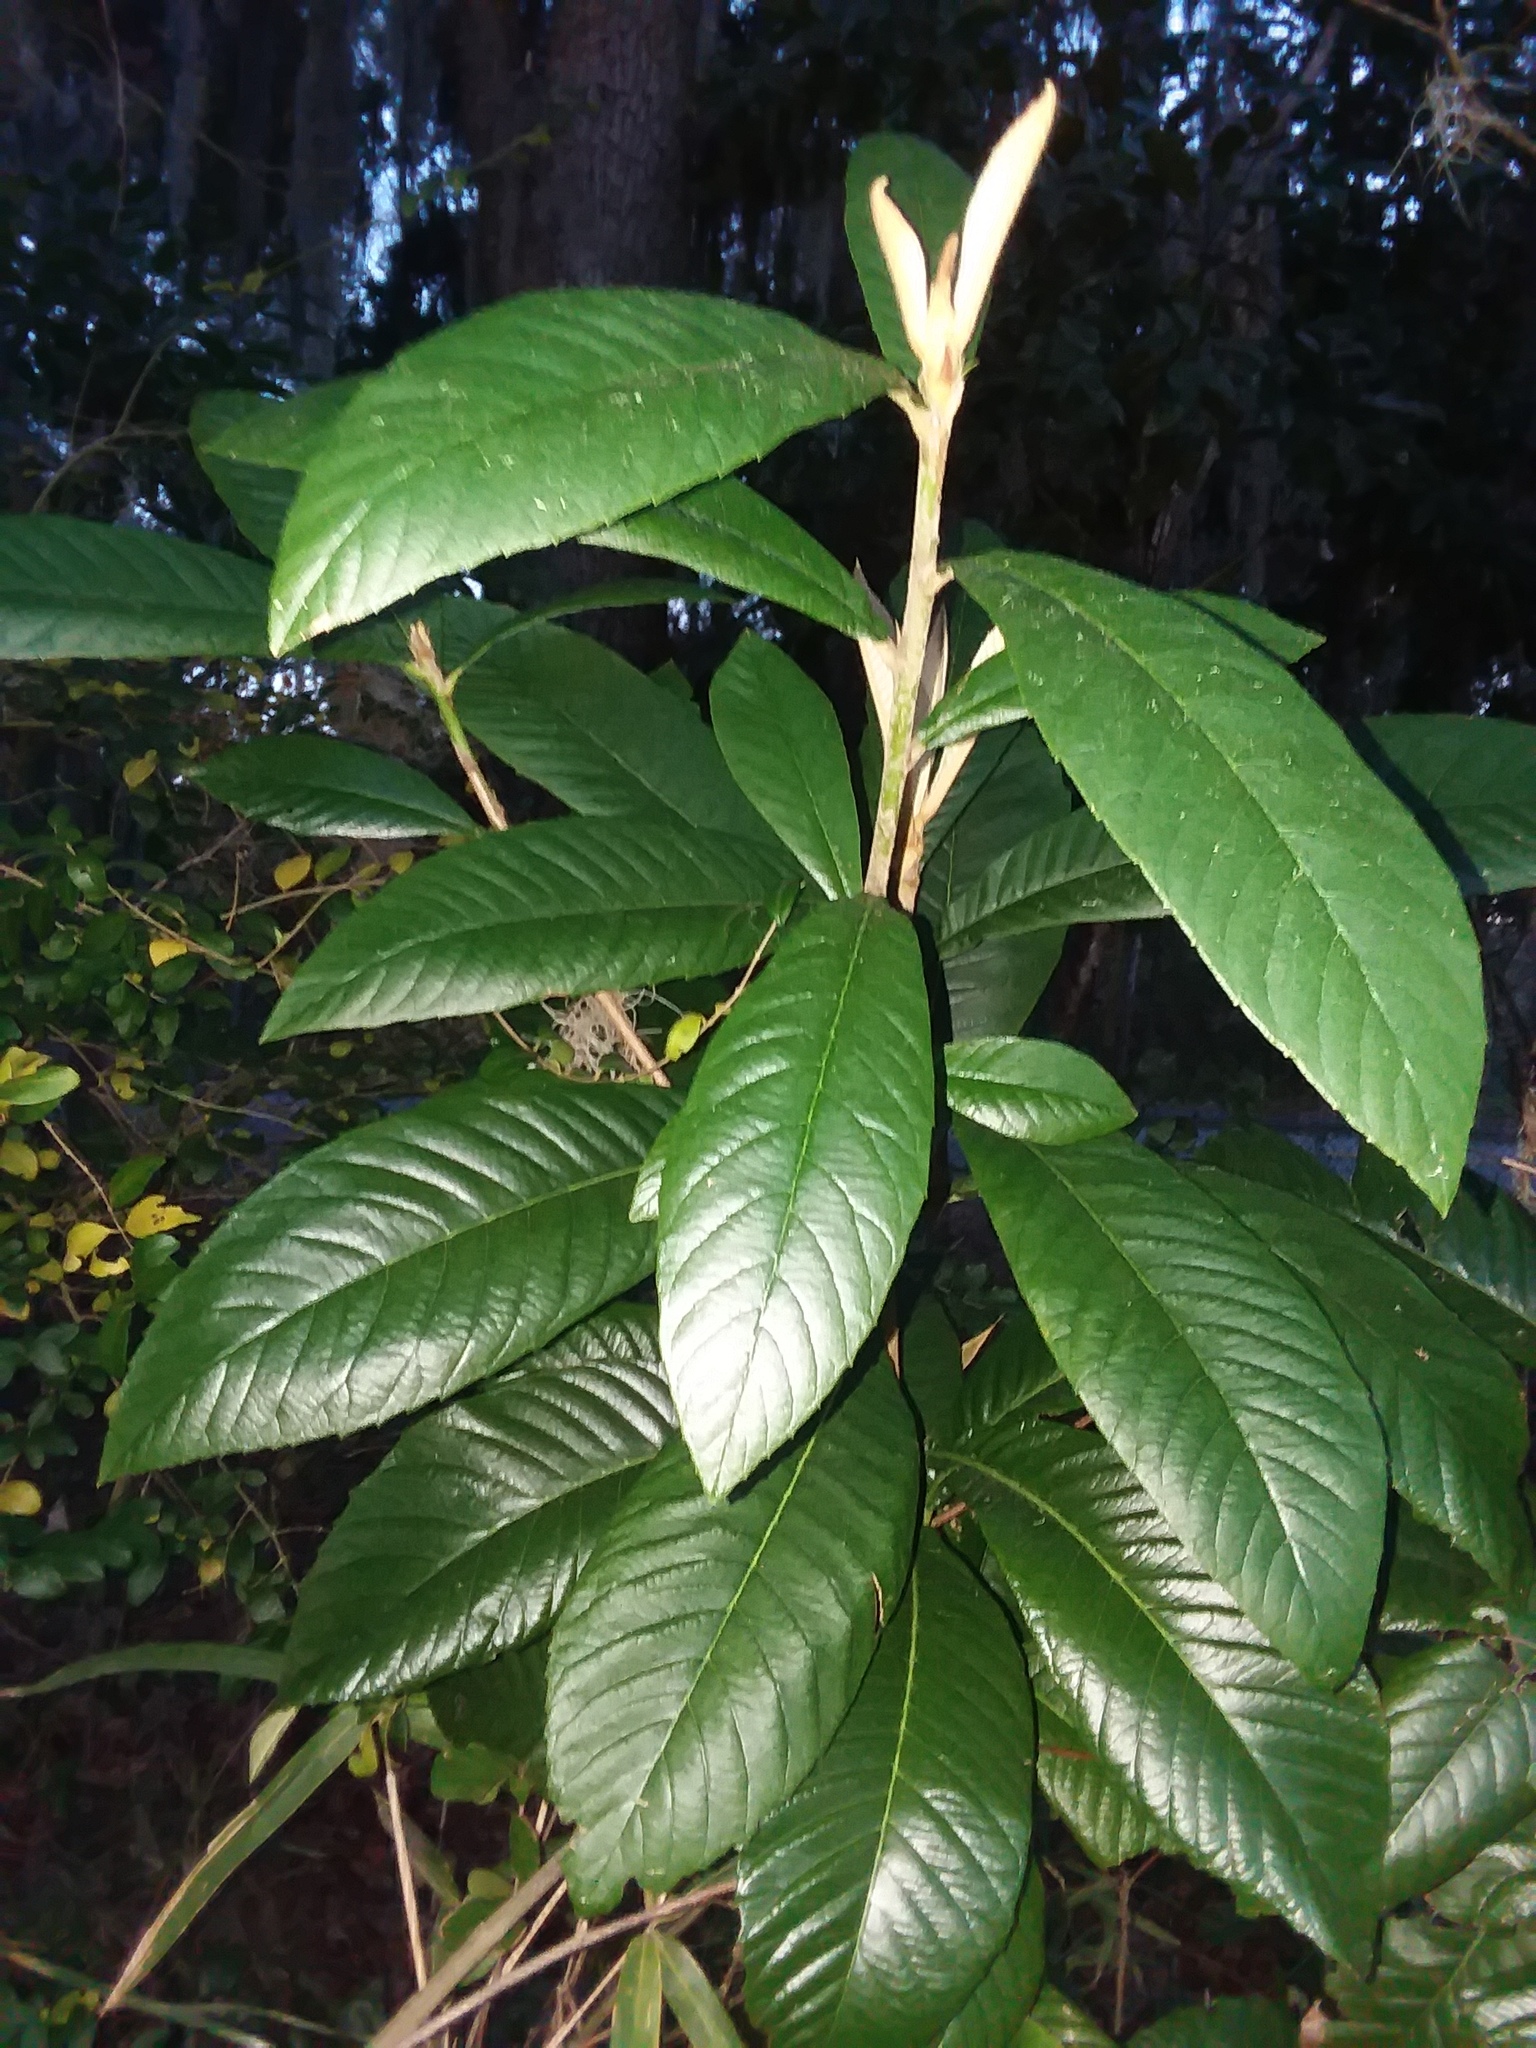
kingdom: Plantae
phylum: Tracheophyta
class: Magnoliopsida
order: Rosales
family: Rosaceae
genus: Rhaphiolepis
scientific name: Rhaphiolepis bibas
